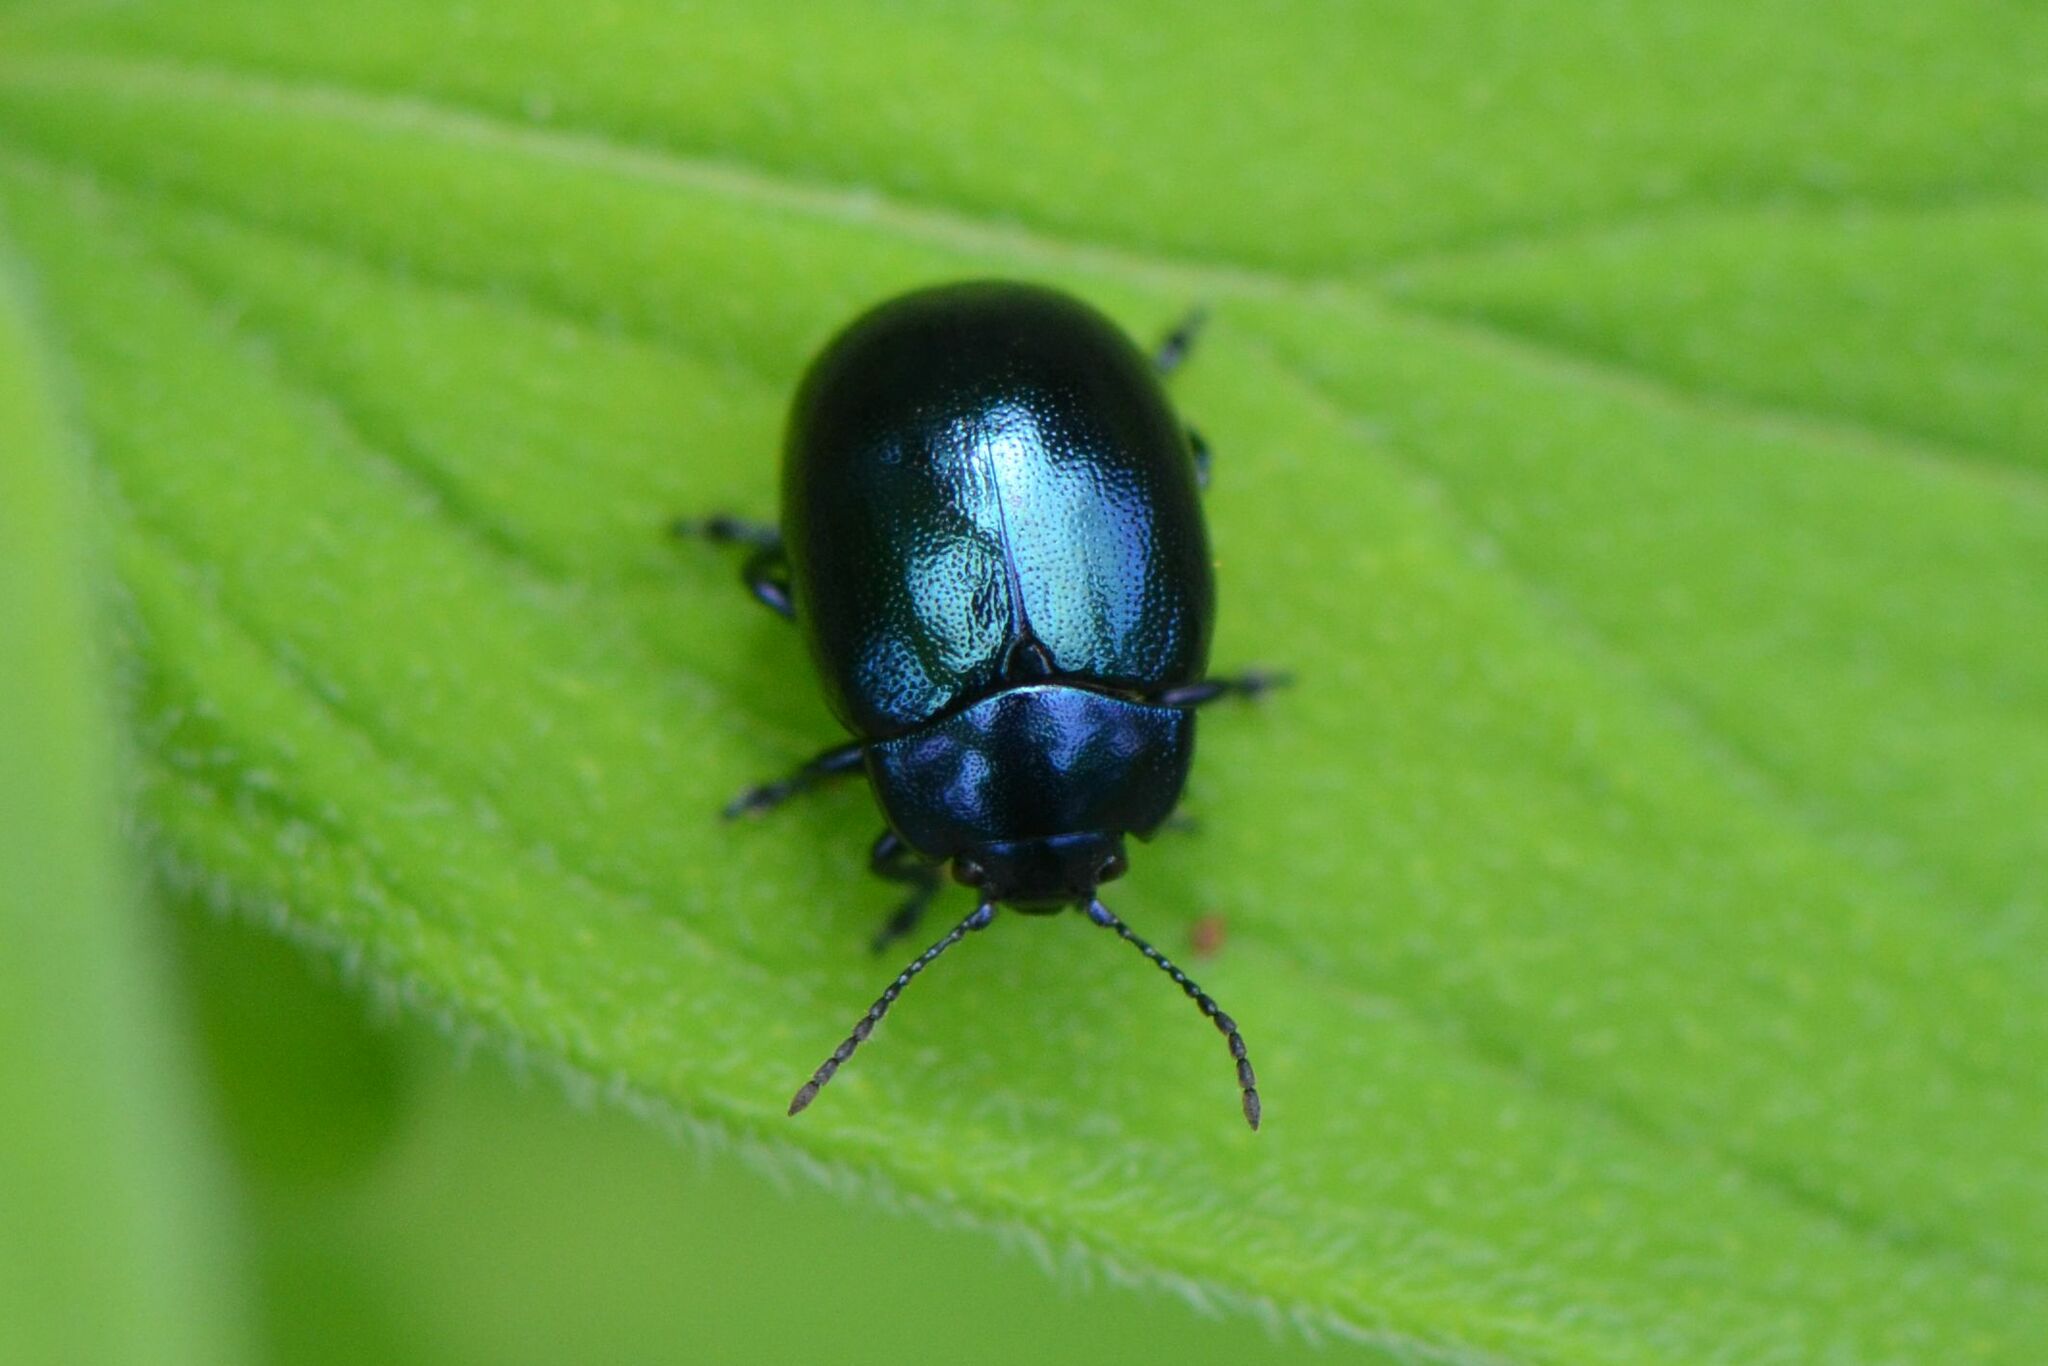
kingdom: Animalia
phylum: Arthropoda
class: Insecta
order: Coleoptera
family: Chrysomelidae
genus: Chrysolina
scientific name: Chrysolina varians
